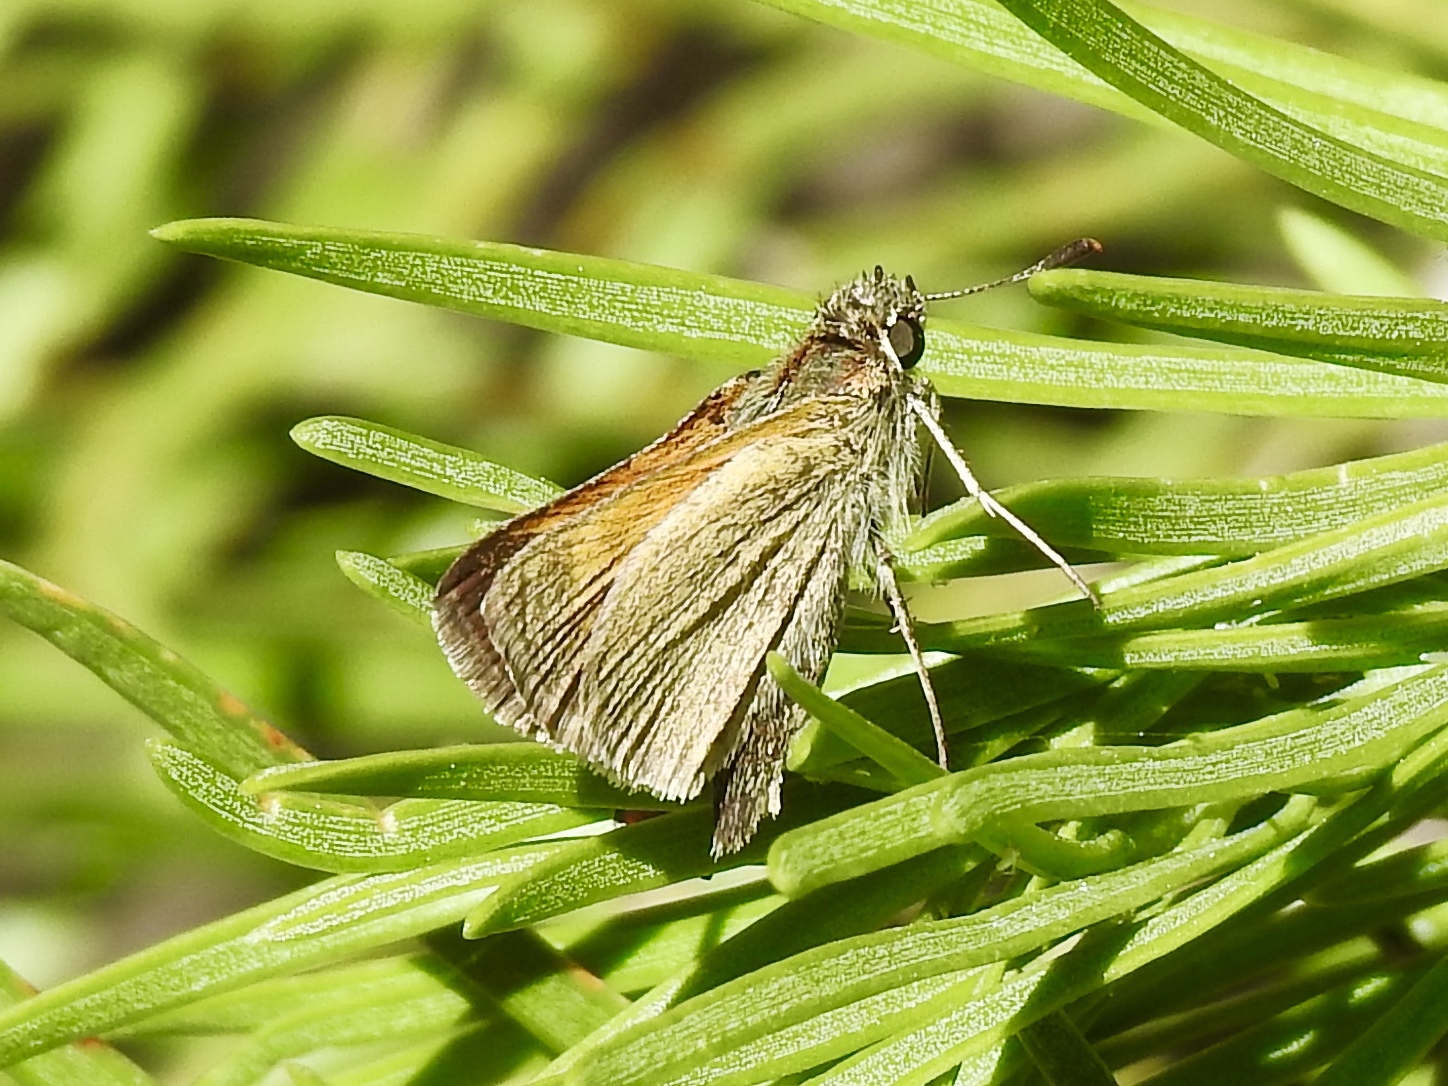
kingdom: Animalia
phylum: Arthropoda
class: Insecta
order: Lepidoptera
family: Hesperiidae
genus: Polites
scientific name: Polites themistocles
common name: Tawny-edged skipper
